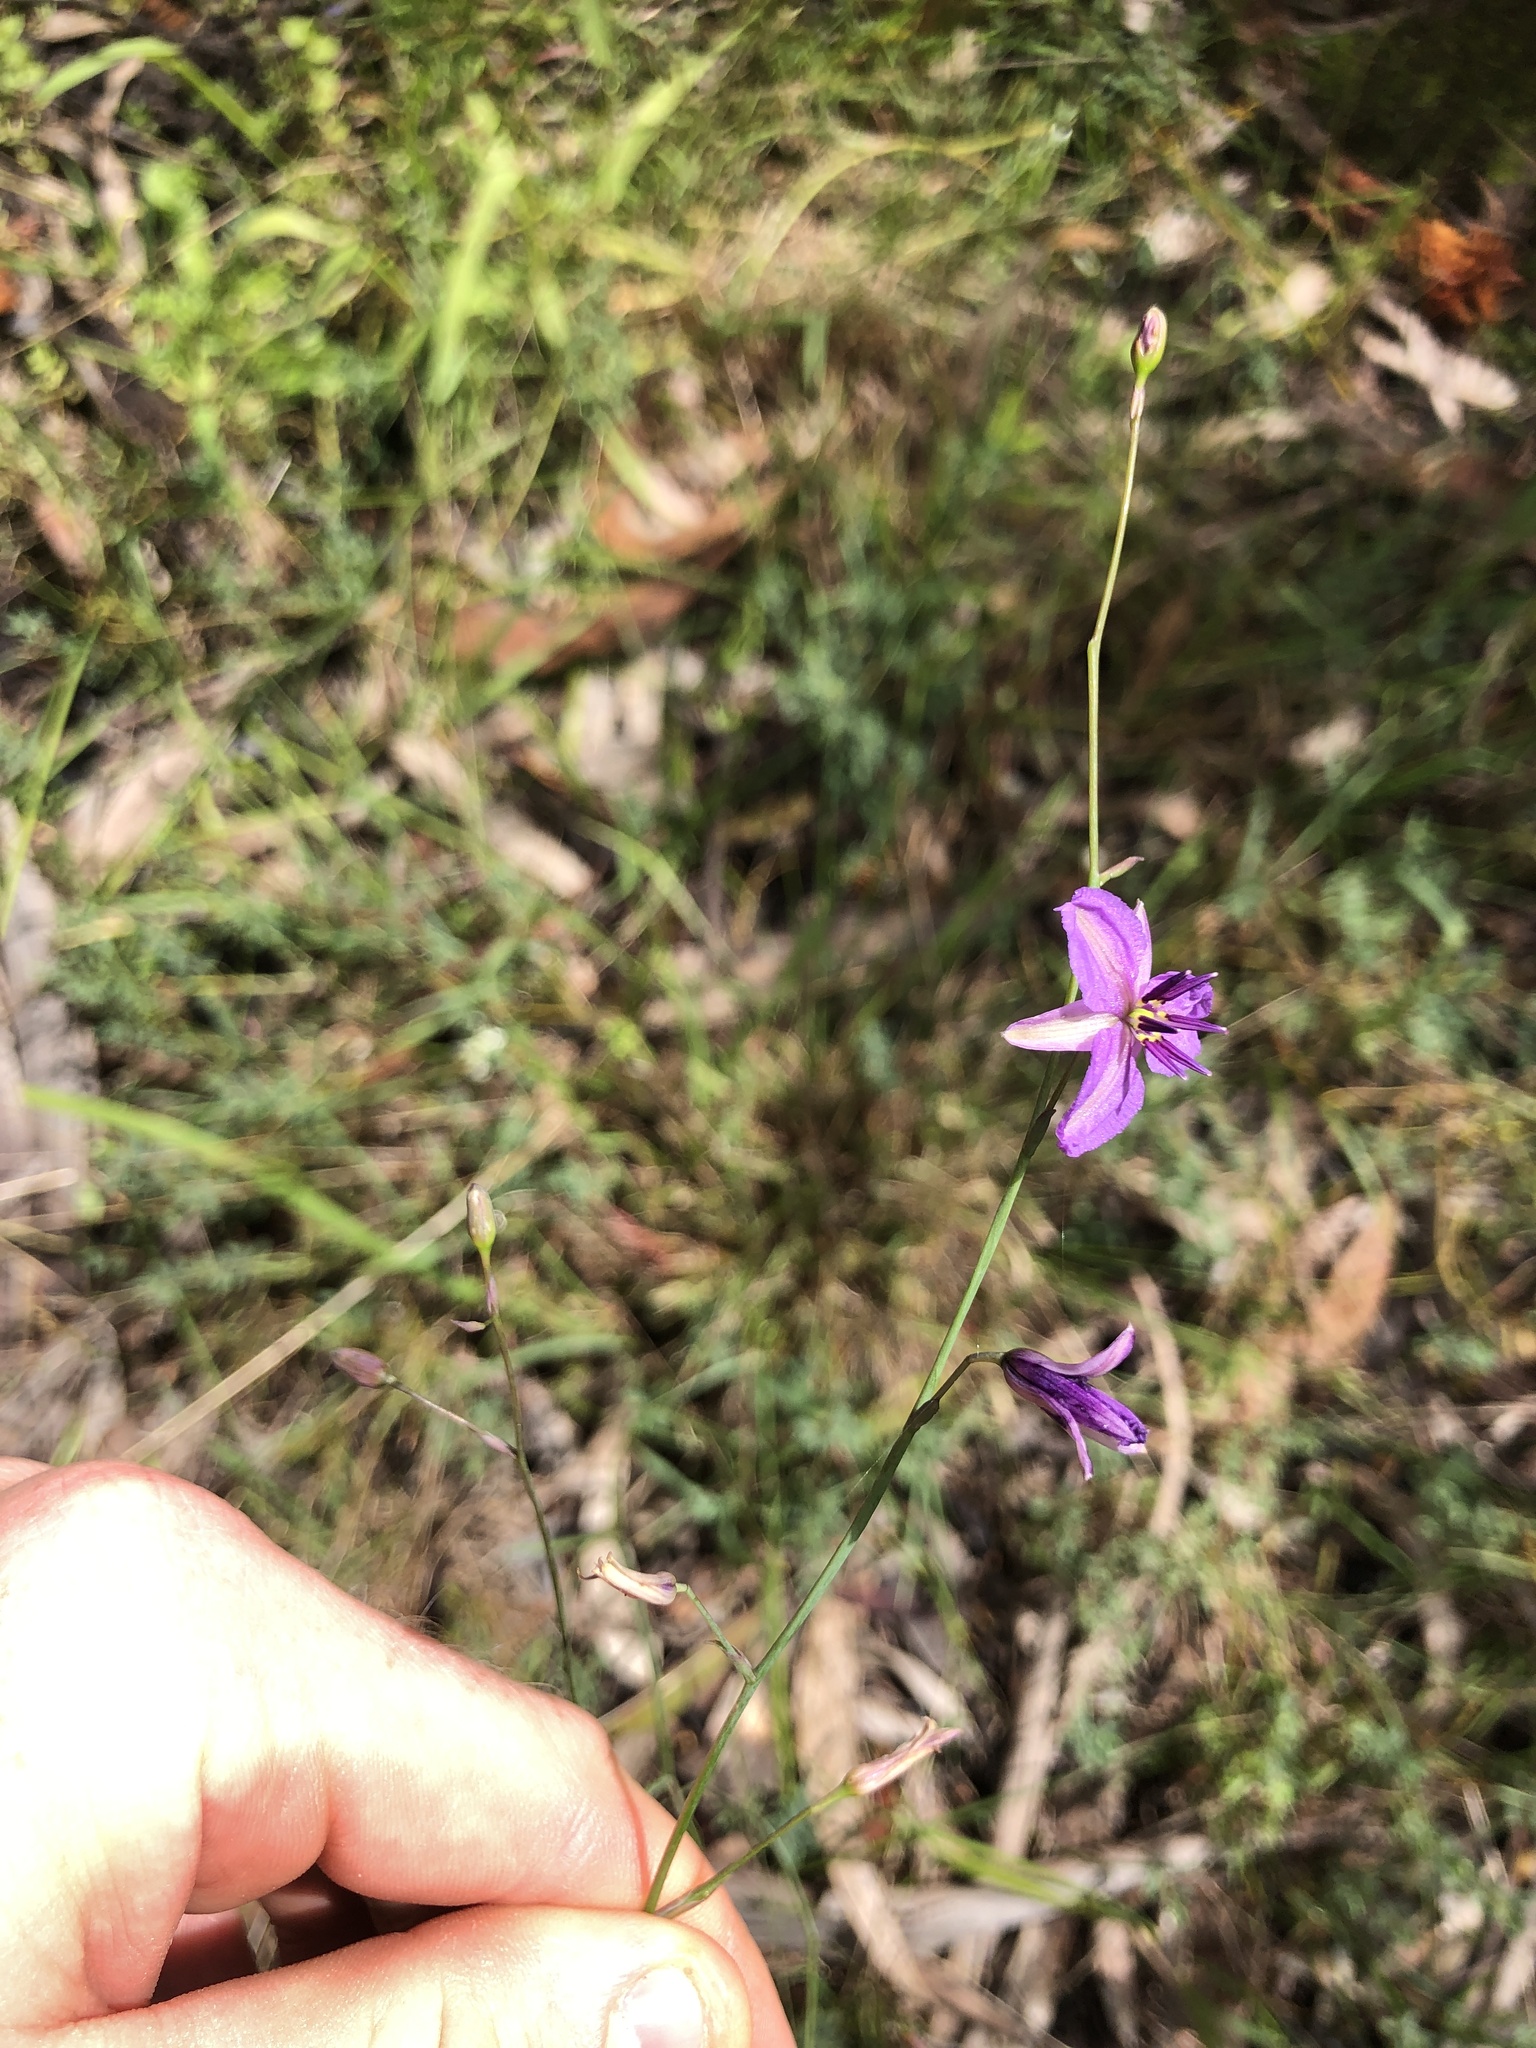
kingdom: Plantae
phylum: Tracheophyta
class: Liliopsida
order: Asparagales
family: Asparagaceae
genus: Arthropodium
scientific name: Arthropodium strictum
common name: Chocolate-lily
